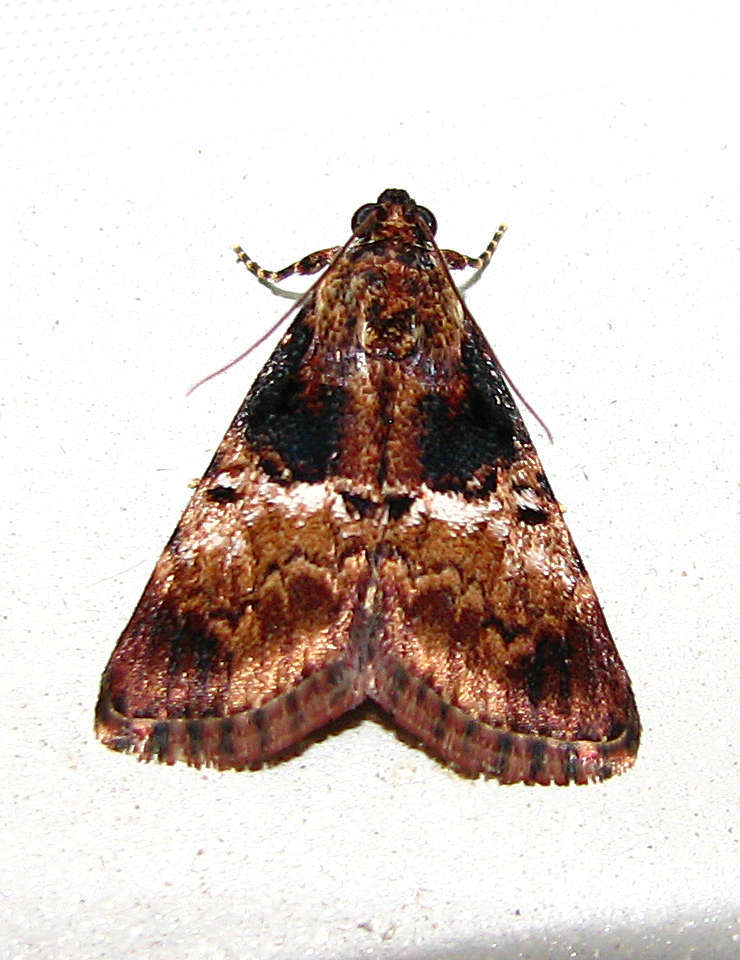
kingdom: Animalia
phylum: Arthropoda
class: Insecta
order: Lepidoptera
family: Pyralidae
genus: Orthaga
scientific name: Orthaga thyrisalis
